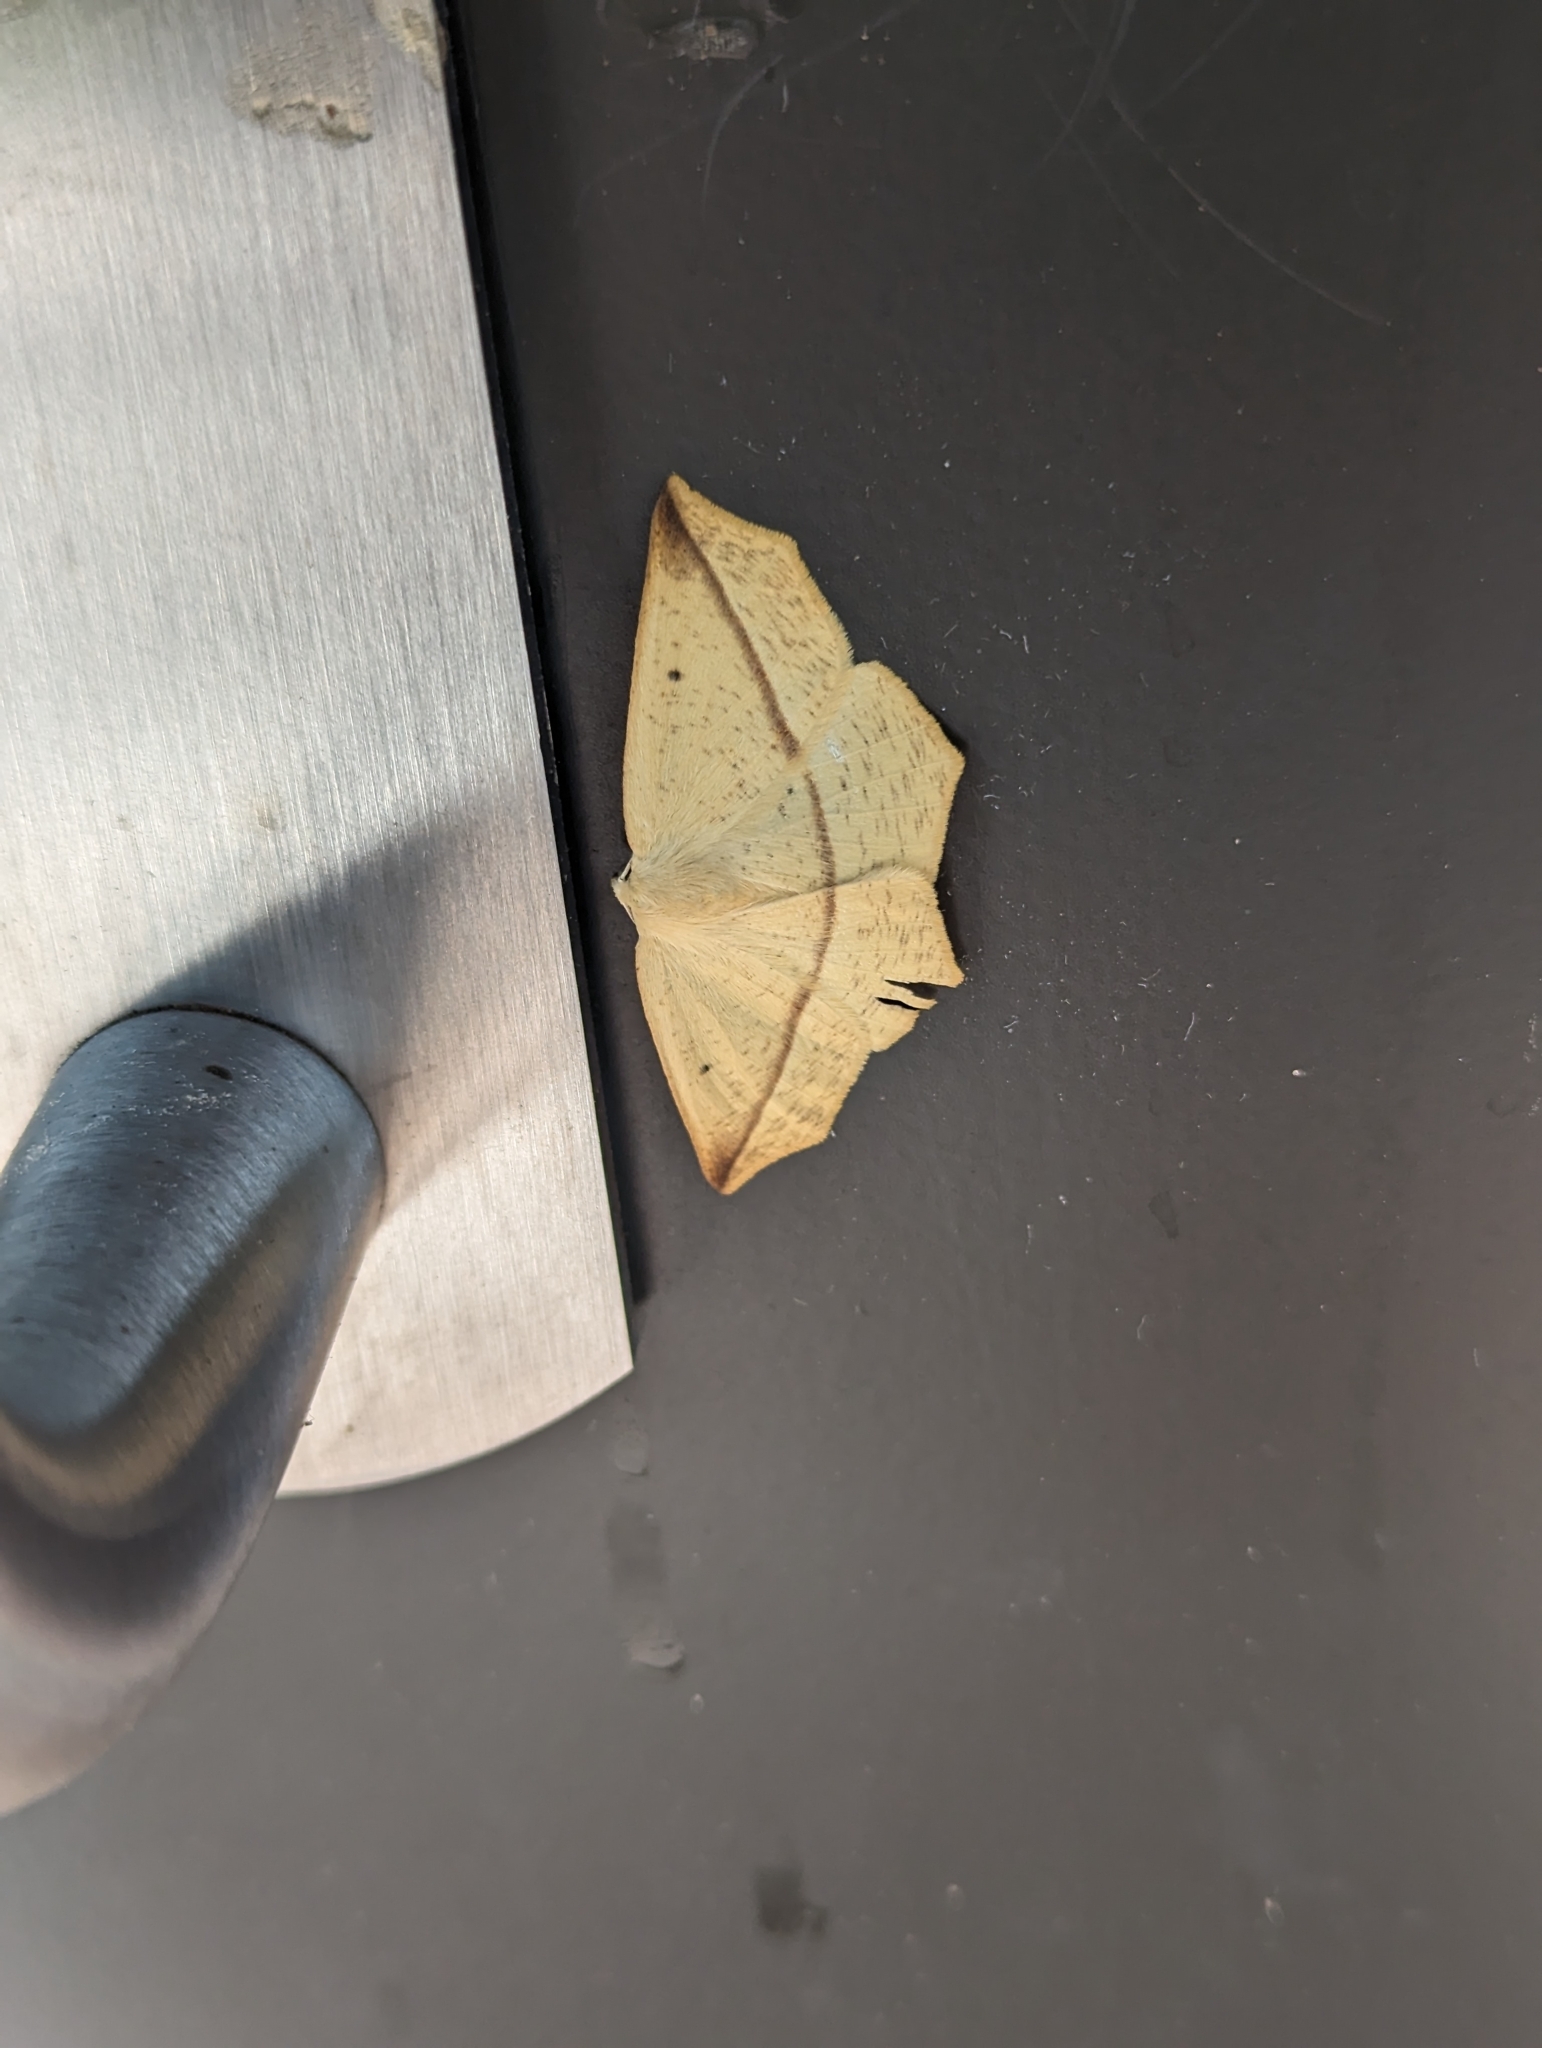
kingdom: Animalia
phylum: Arthropoda
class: Insecta
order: Lepidoptera
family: Geometridae
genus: Tetracis
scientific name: Tetracis crocallata
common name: Yellow slant-line
